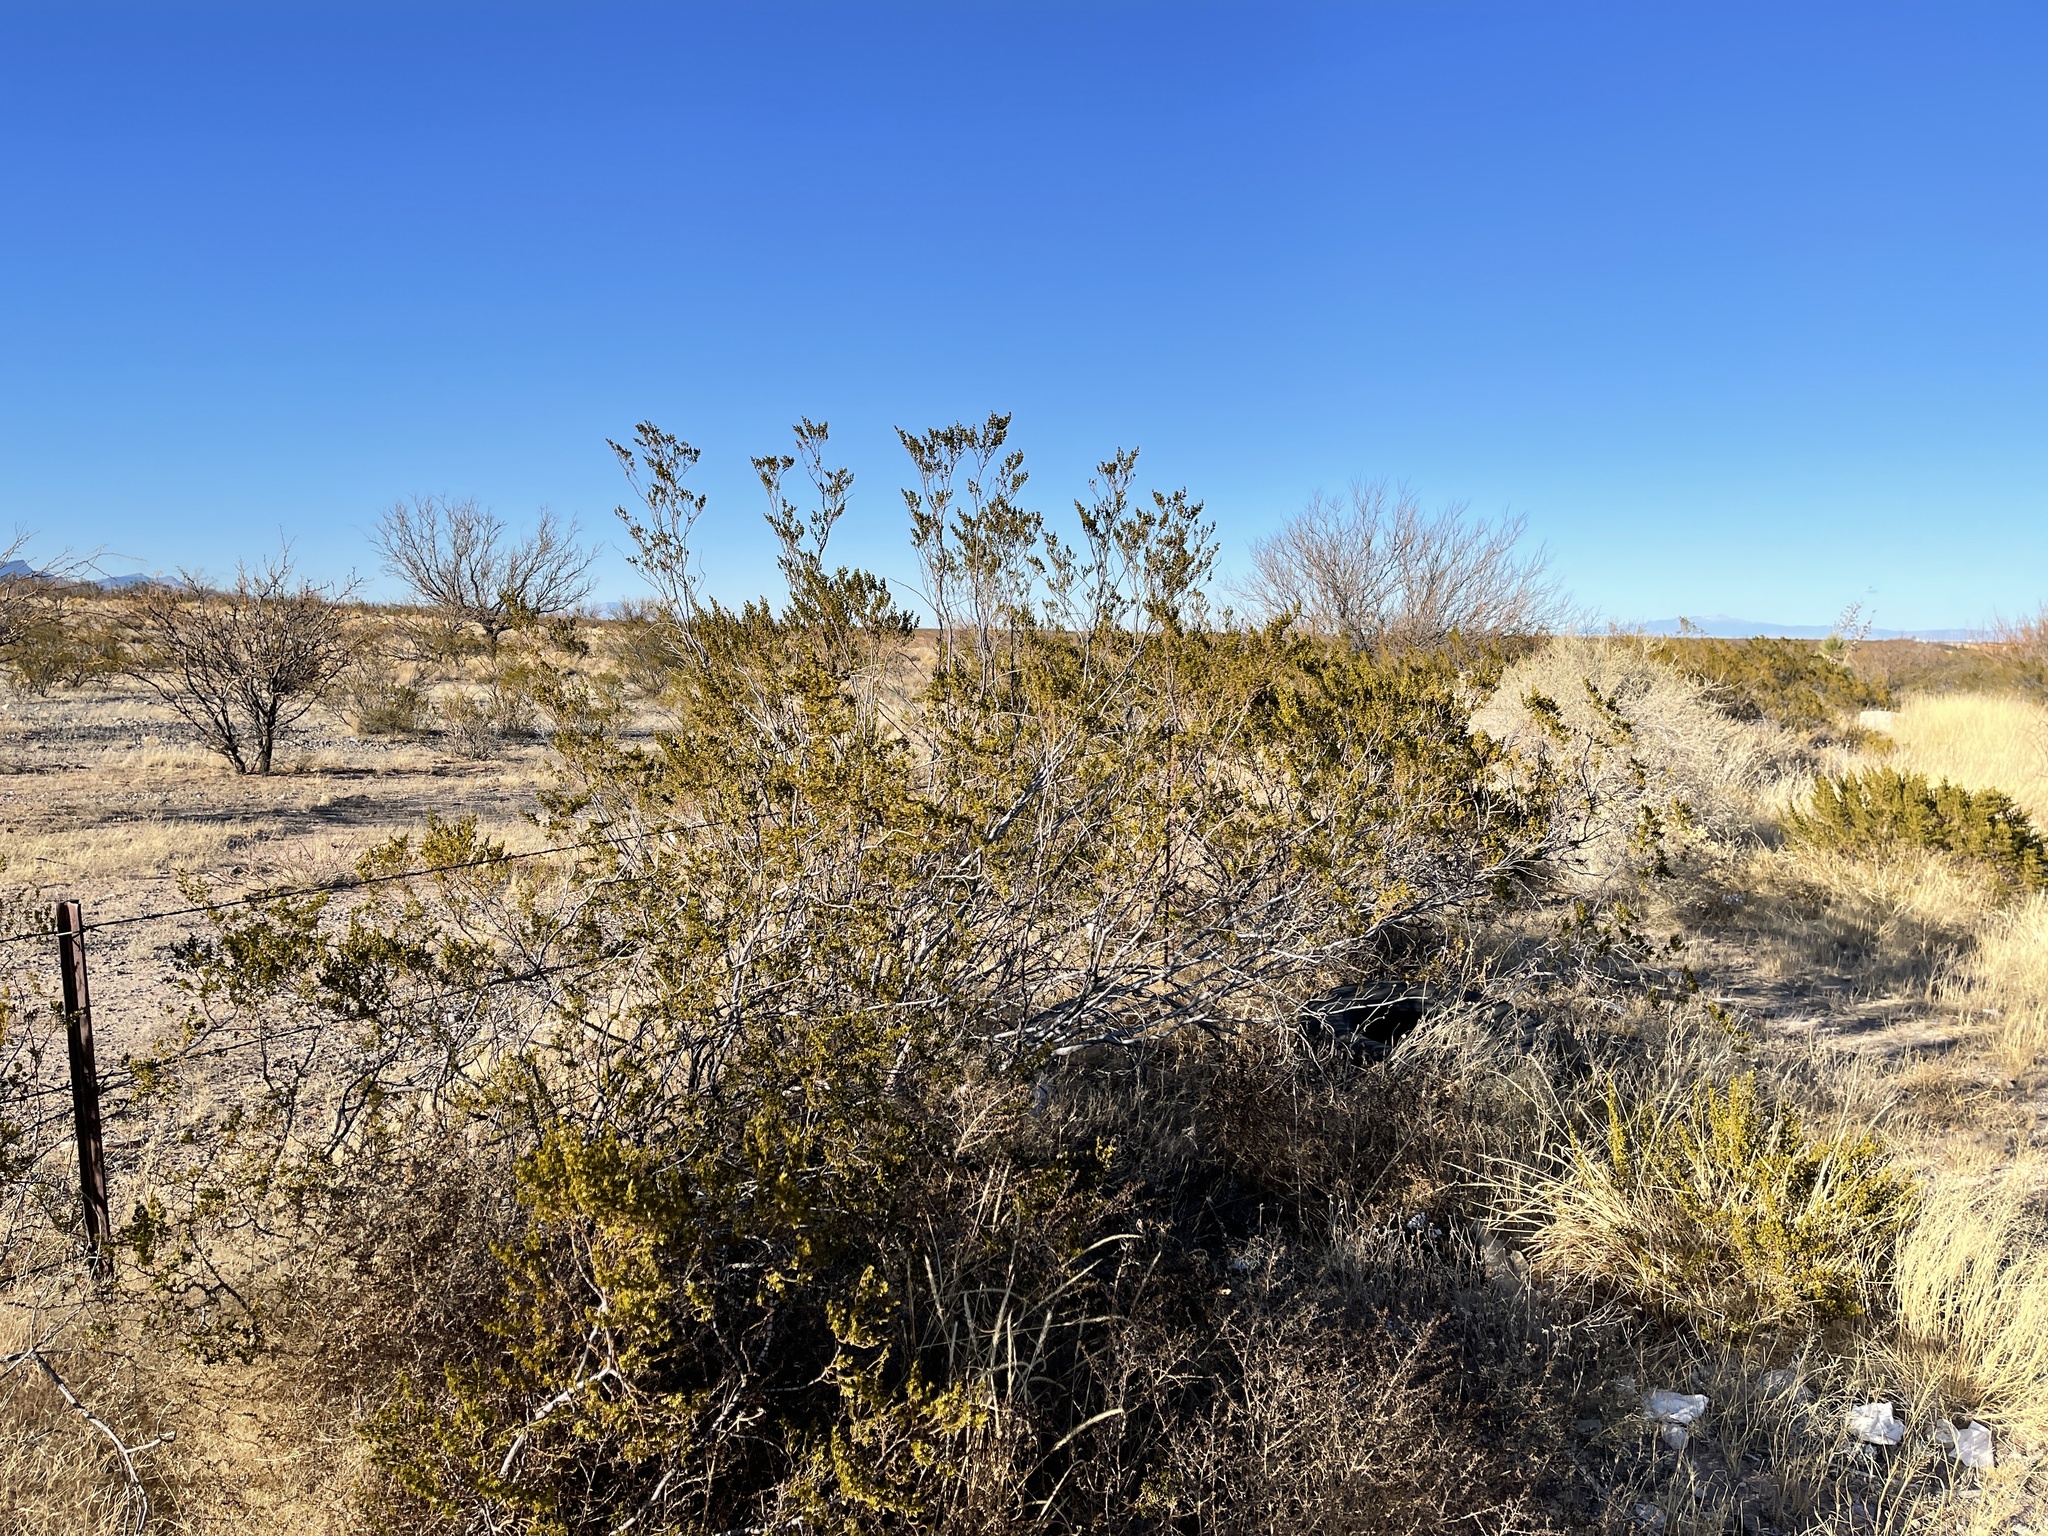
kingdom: Plantae
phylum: Tracheophyta
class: Magnoliopsida
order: Zygophyllales
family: Zygophyllaceae
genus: Larrea
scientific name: Larrea tridentata
